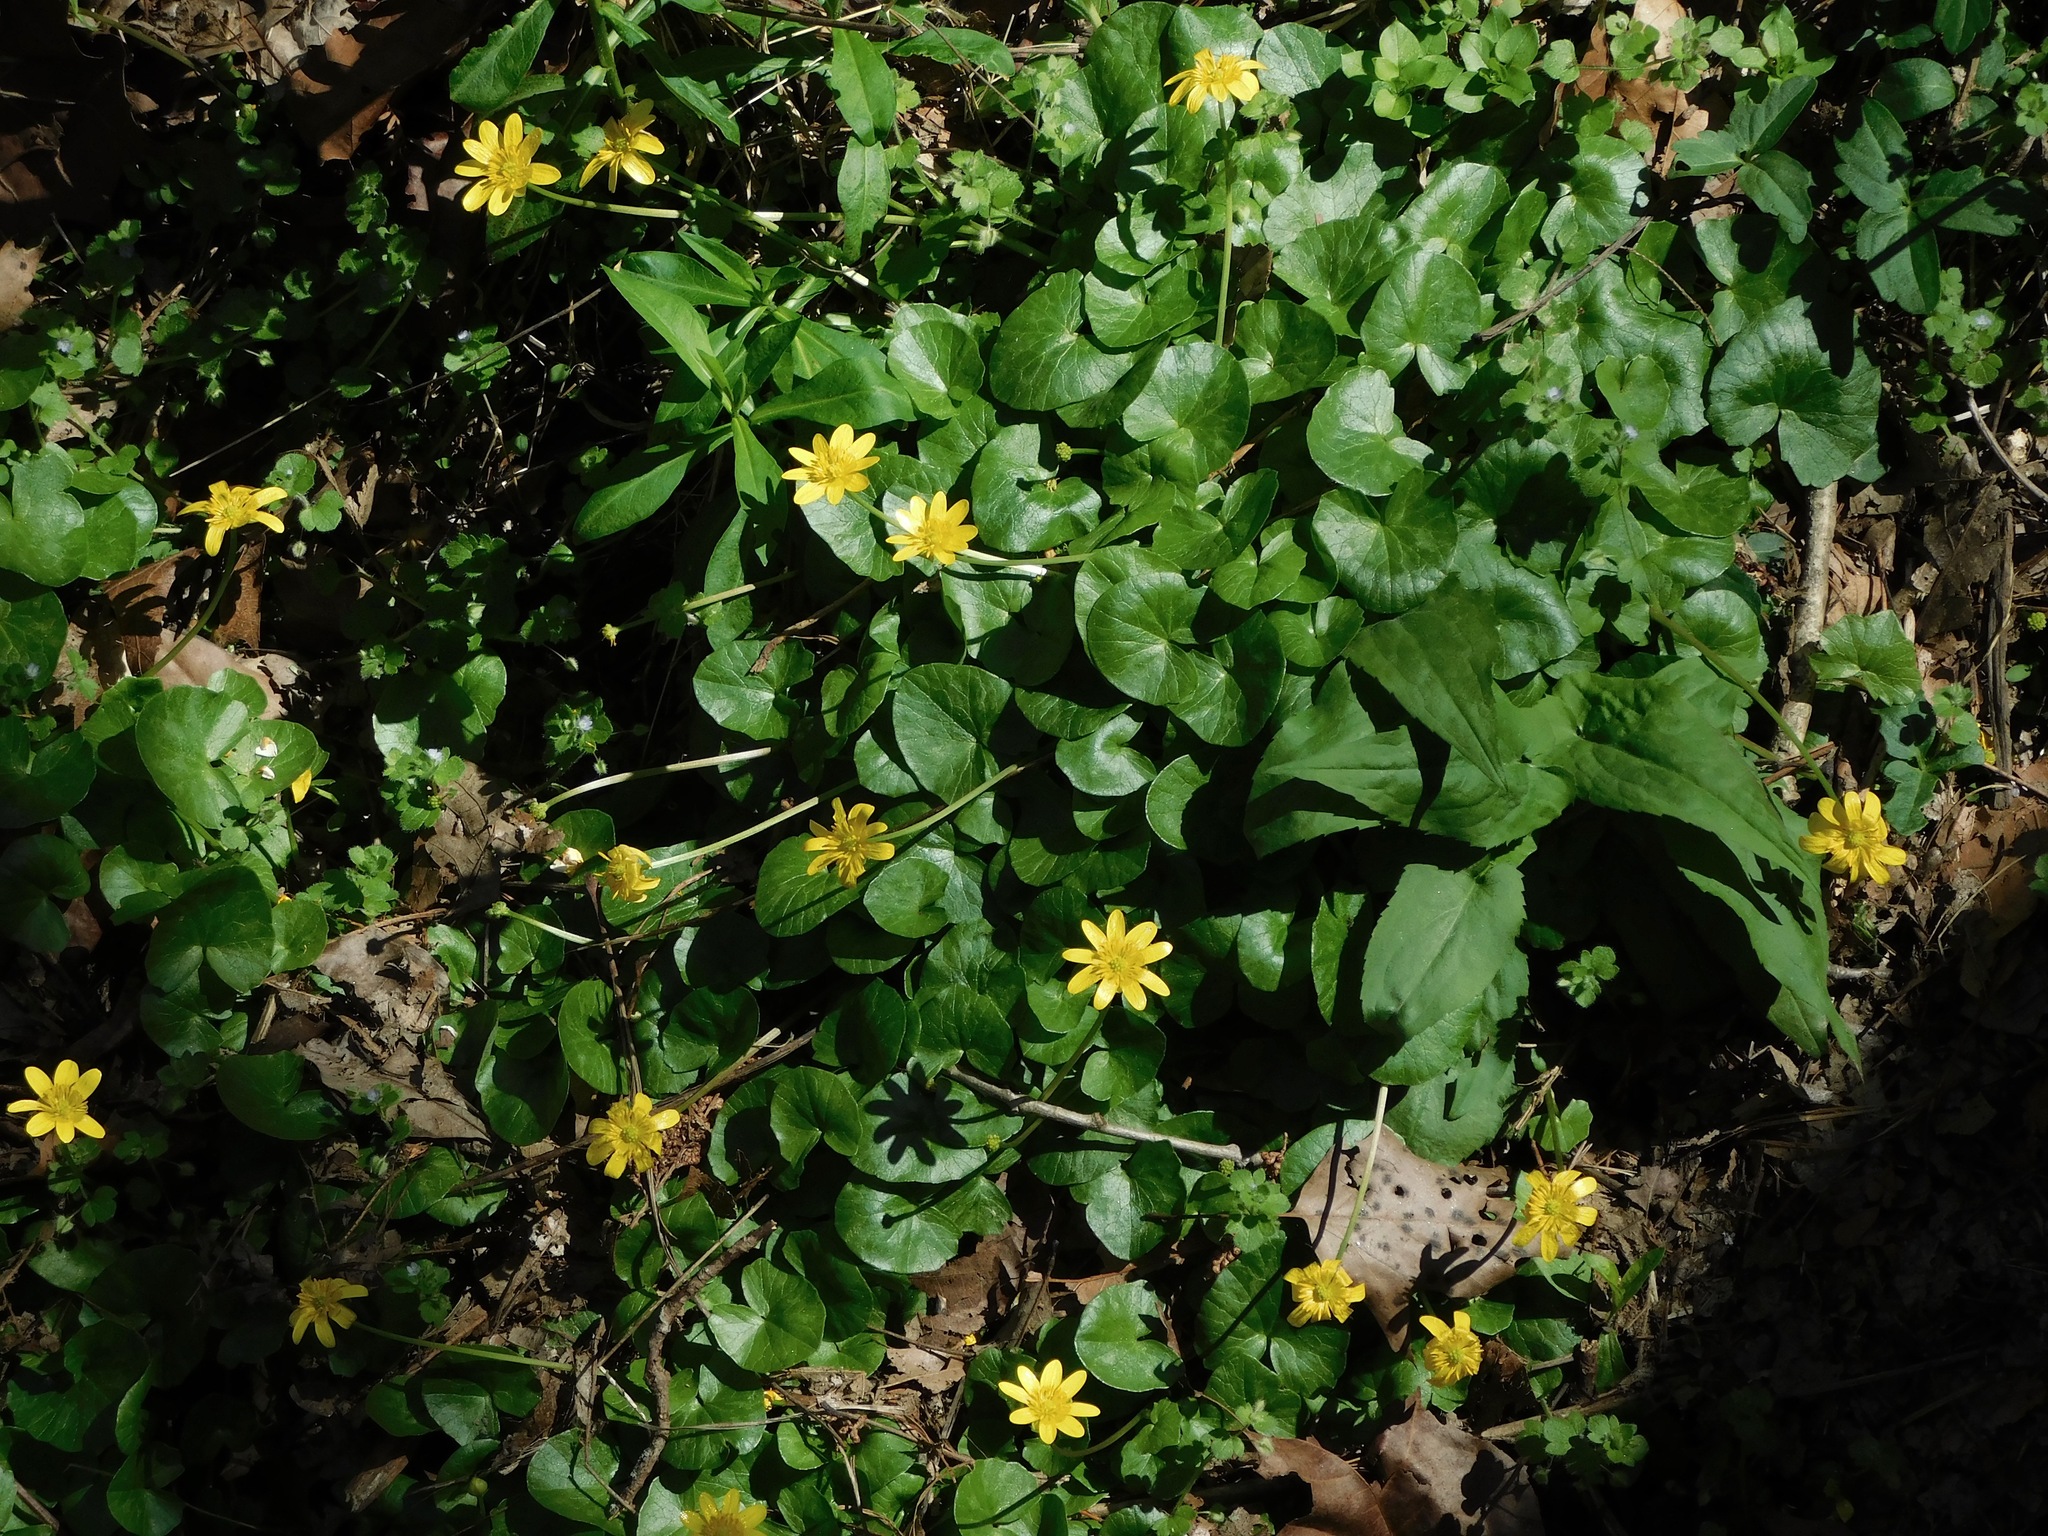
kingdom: Plantae
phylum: Tracheophyta
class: Magnoliopsida
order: Ranunculales
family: Ranunculaceae
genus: Ficaria
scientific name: Ficaria verna
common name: Lesser celandine
